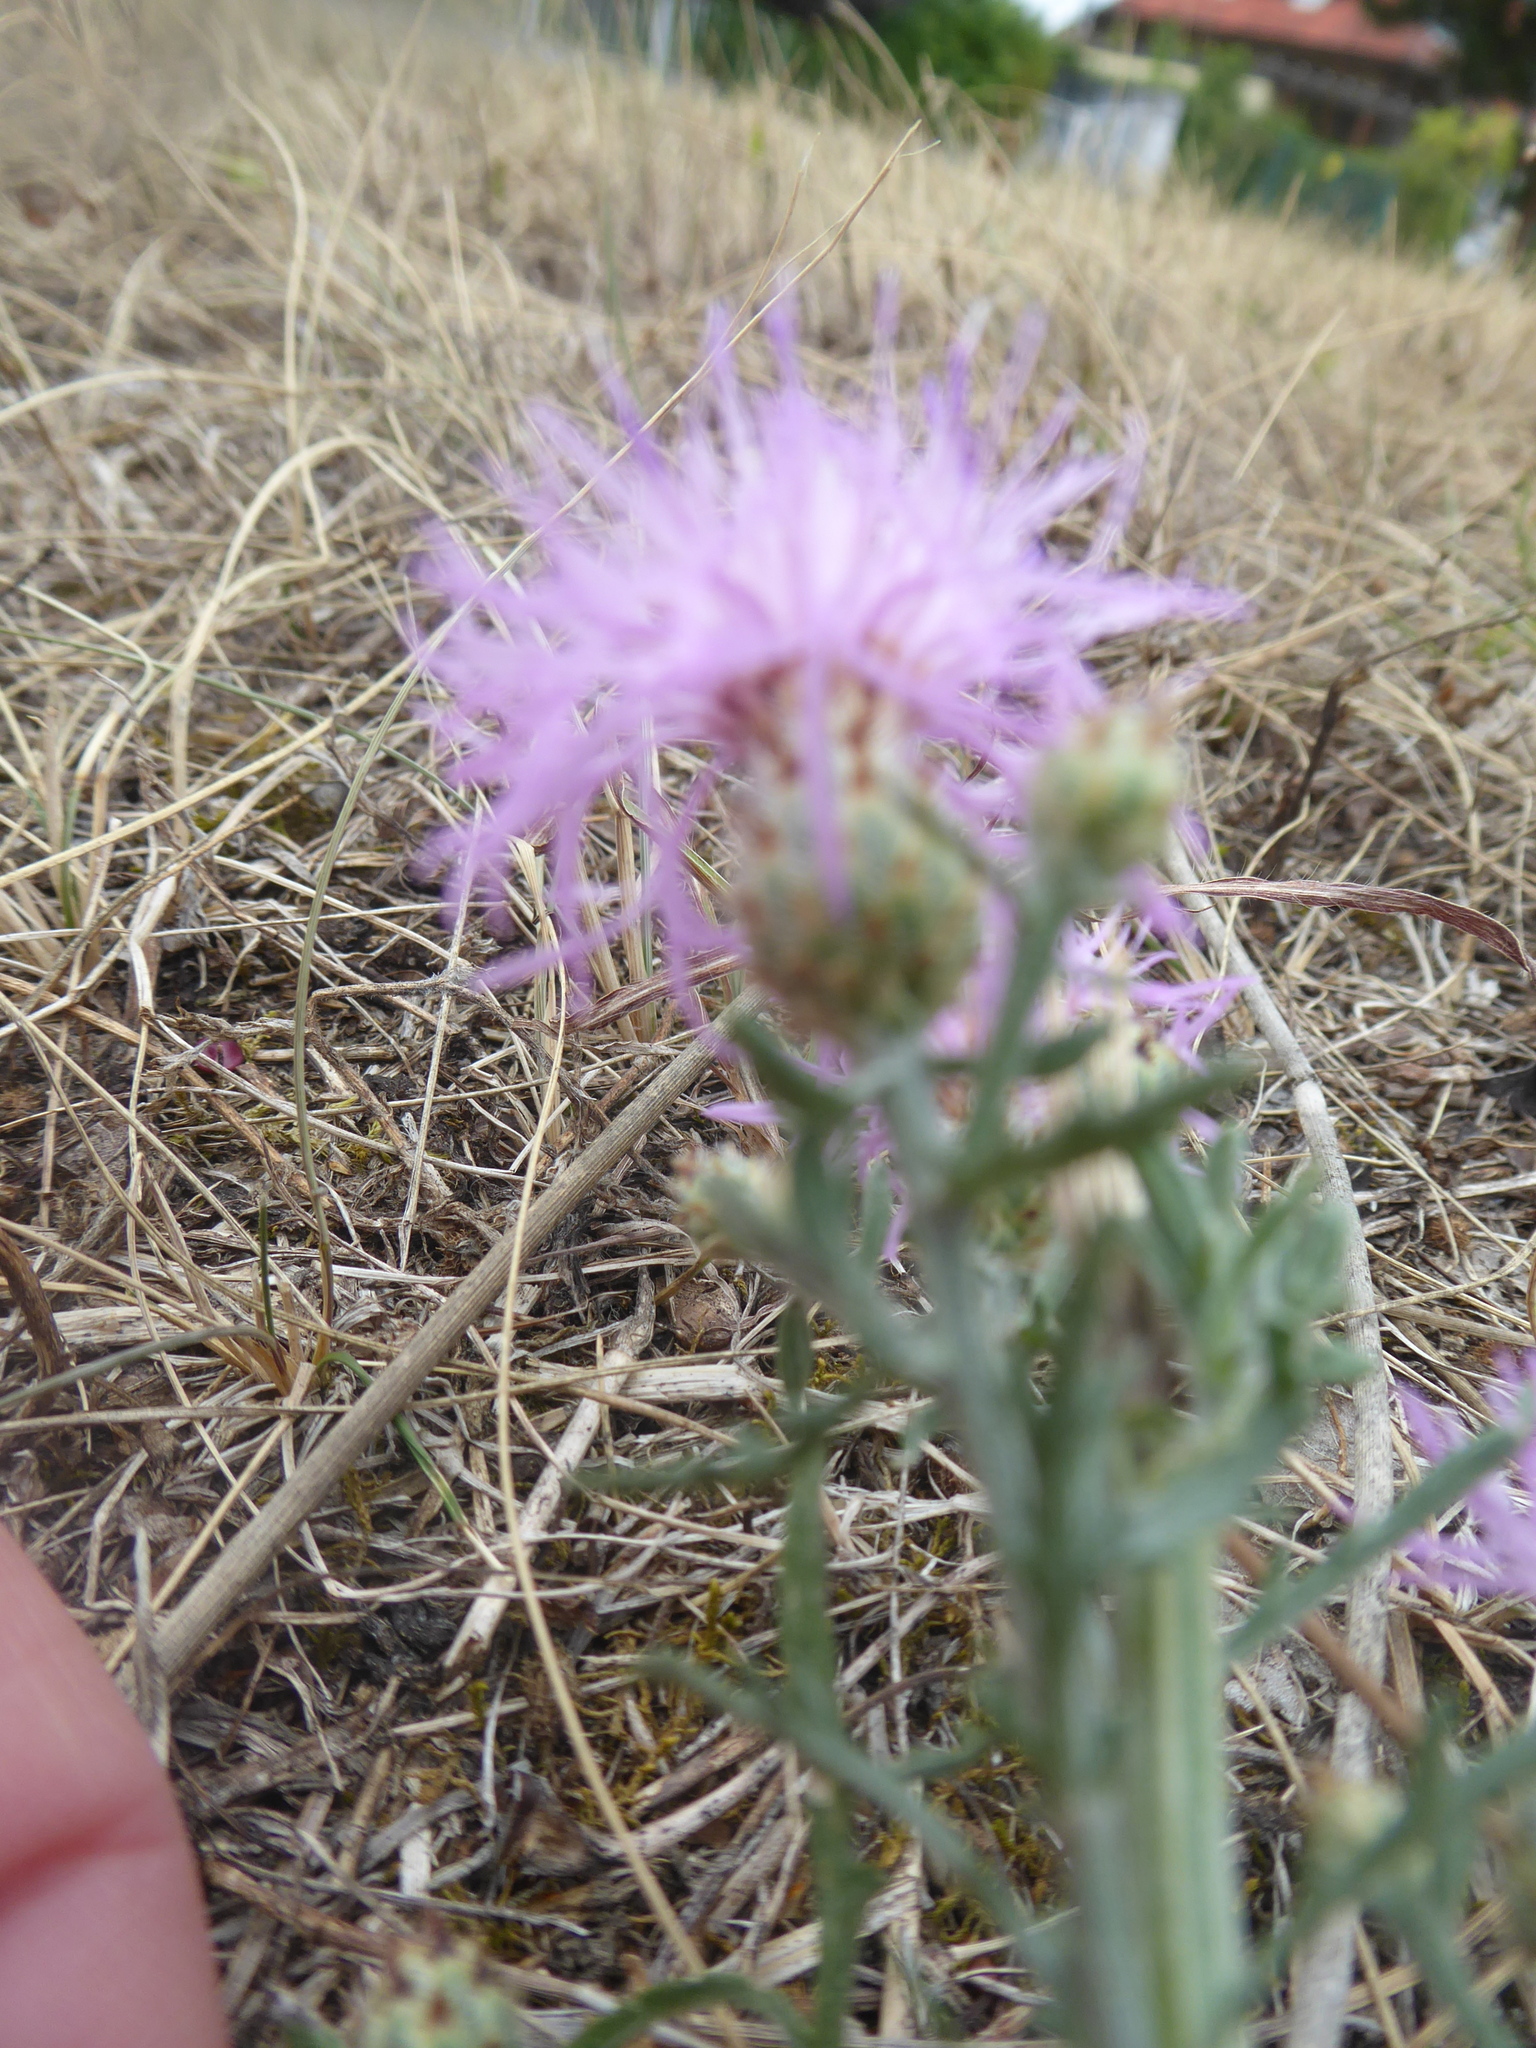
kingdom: Plantae
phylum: Tracheophyta
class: Magnoliopsida
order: Asterales
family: Asteraceae
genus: Centaurea
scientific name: Centaurea stoebe
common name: Spotted knapweed
